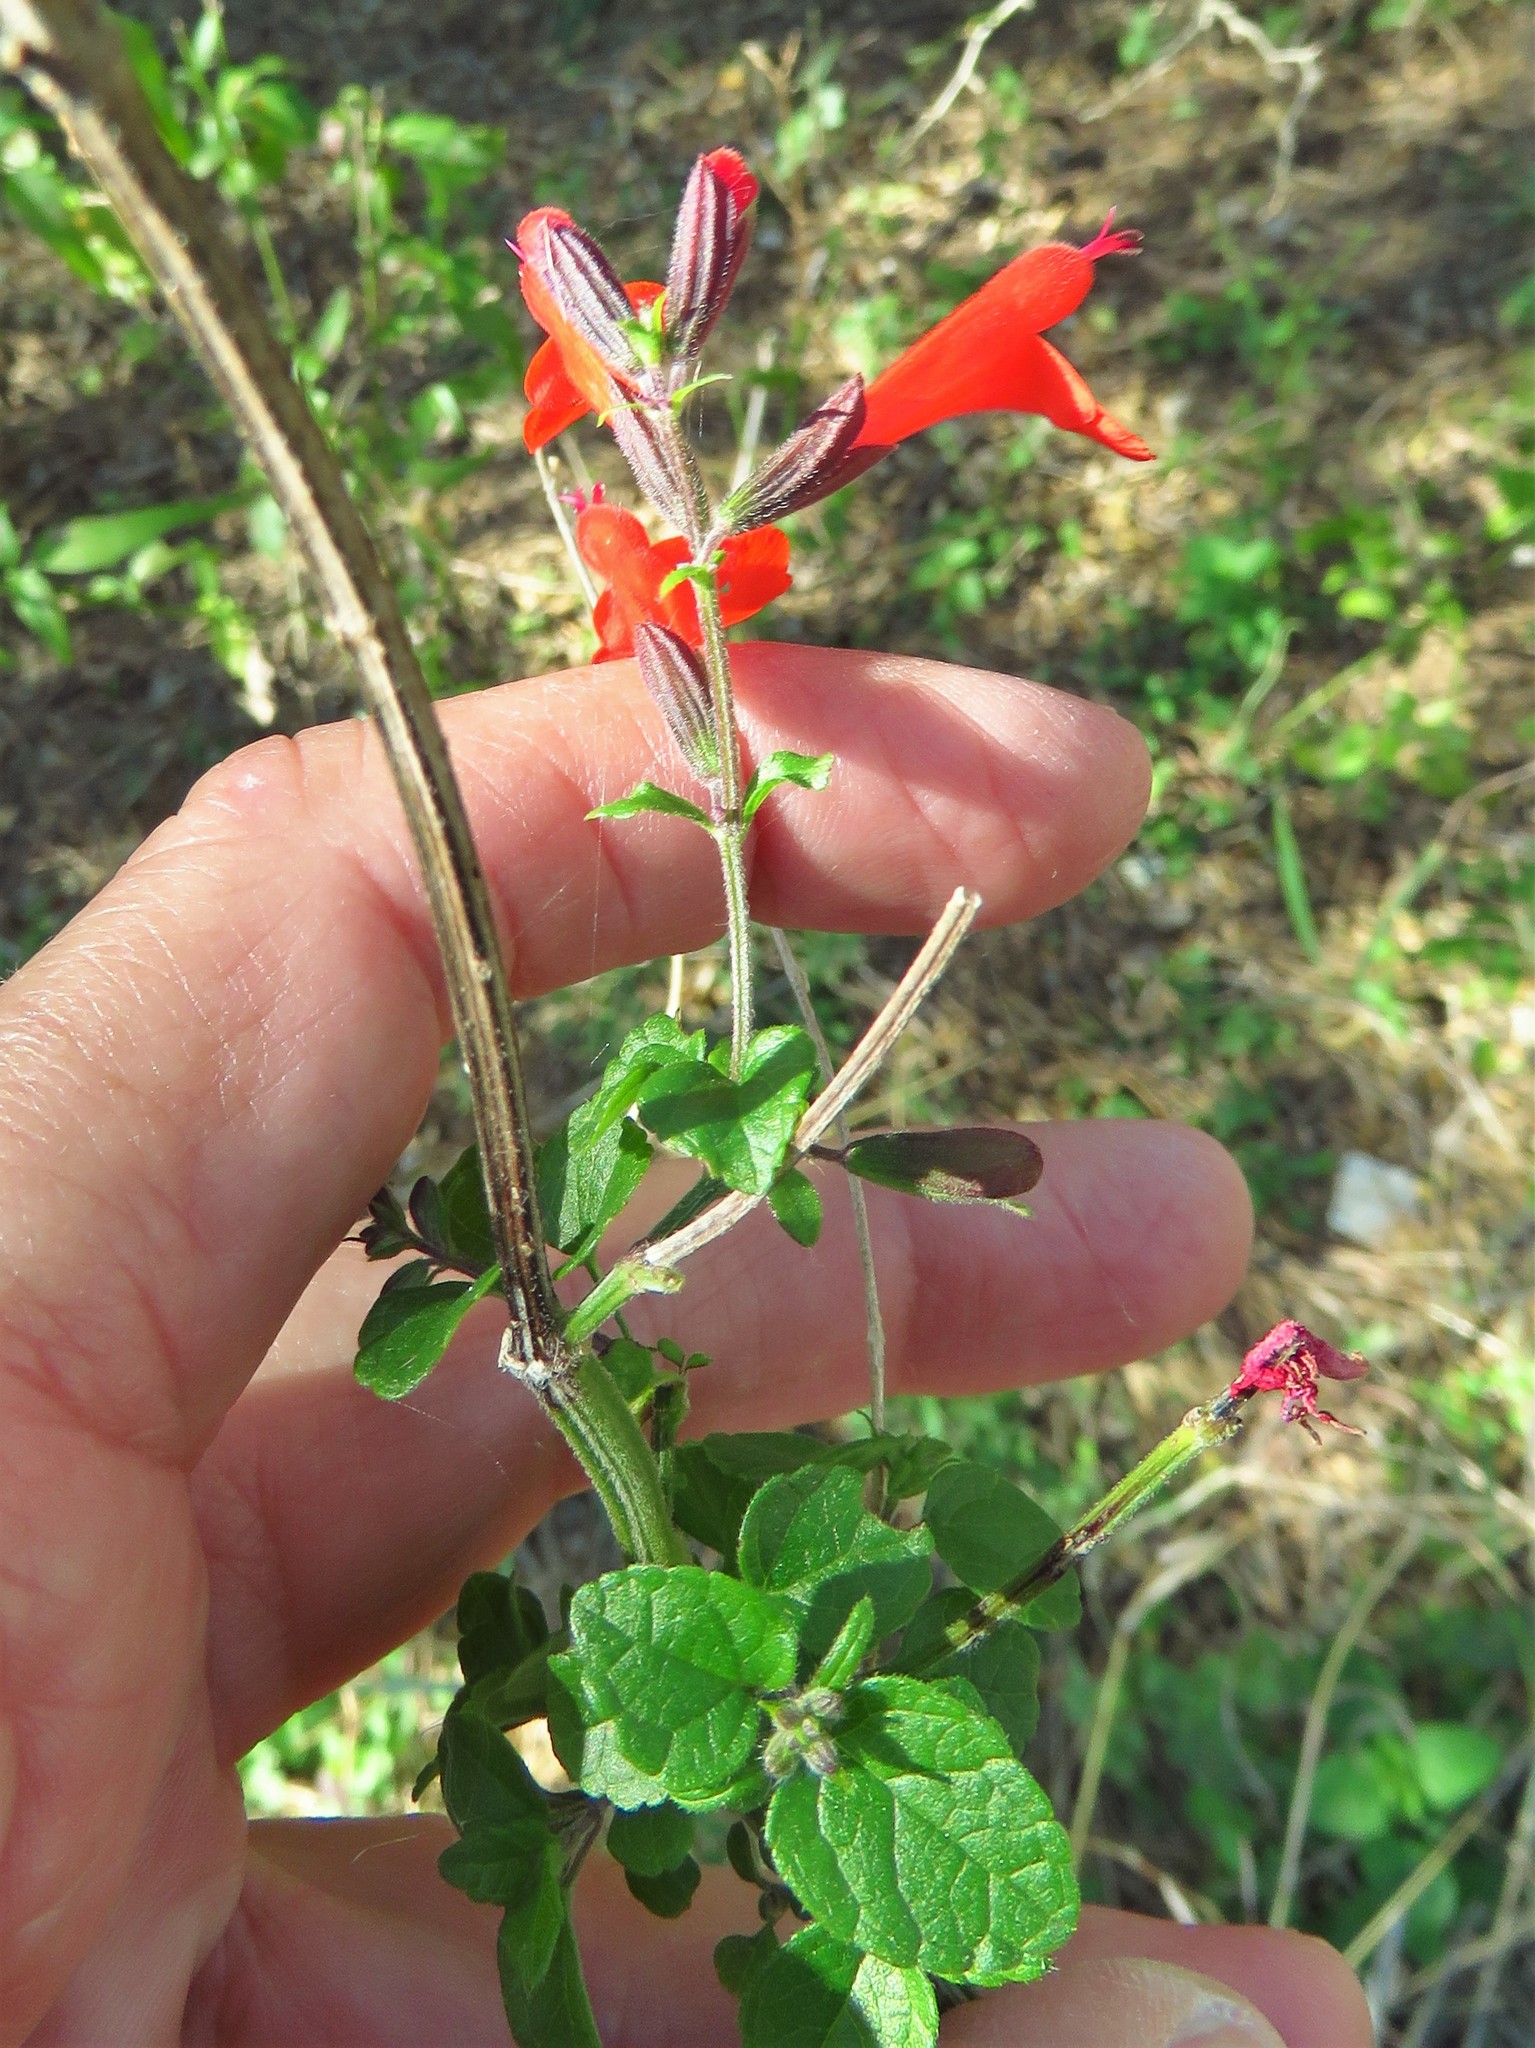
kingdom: Plantae
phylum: Tracheophyta
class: Magnoliopsida
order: Lamiales
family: Lamiaceae
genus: Salvia
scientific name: Salvia coccinea
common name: Blood sage
